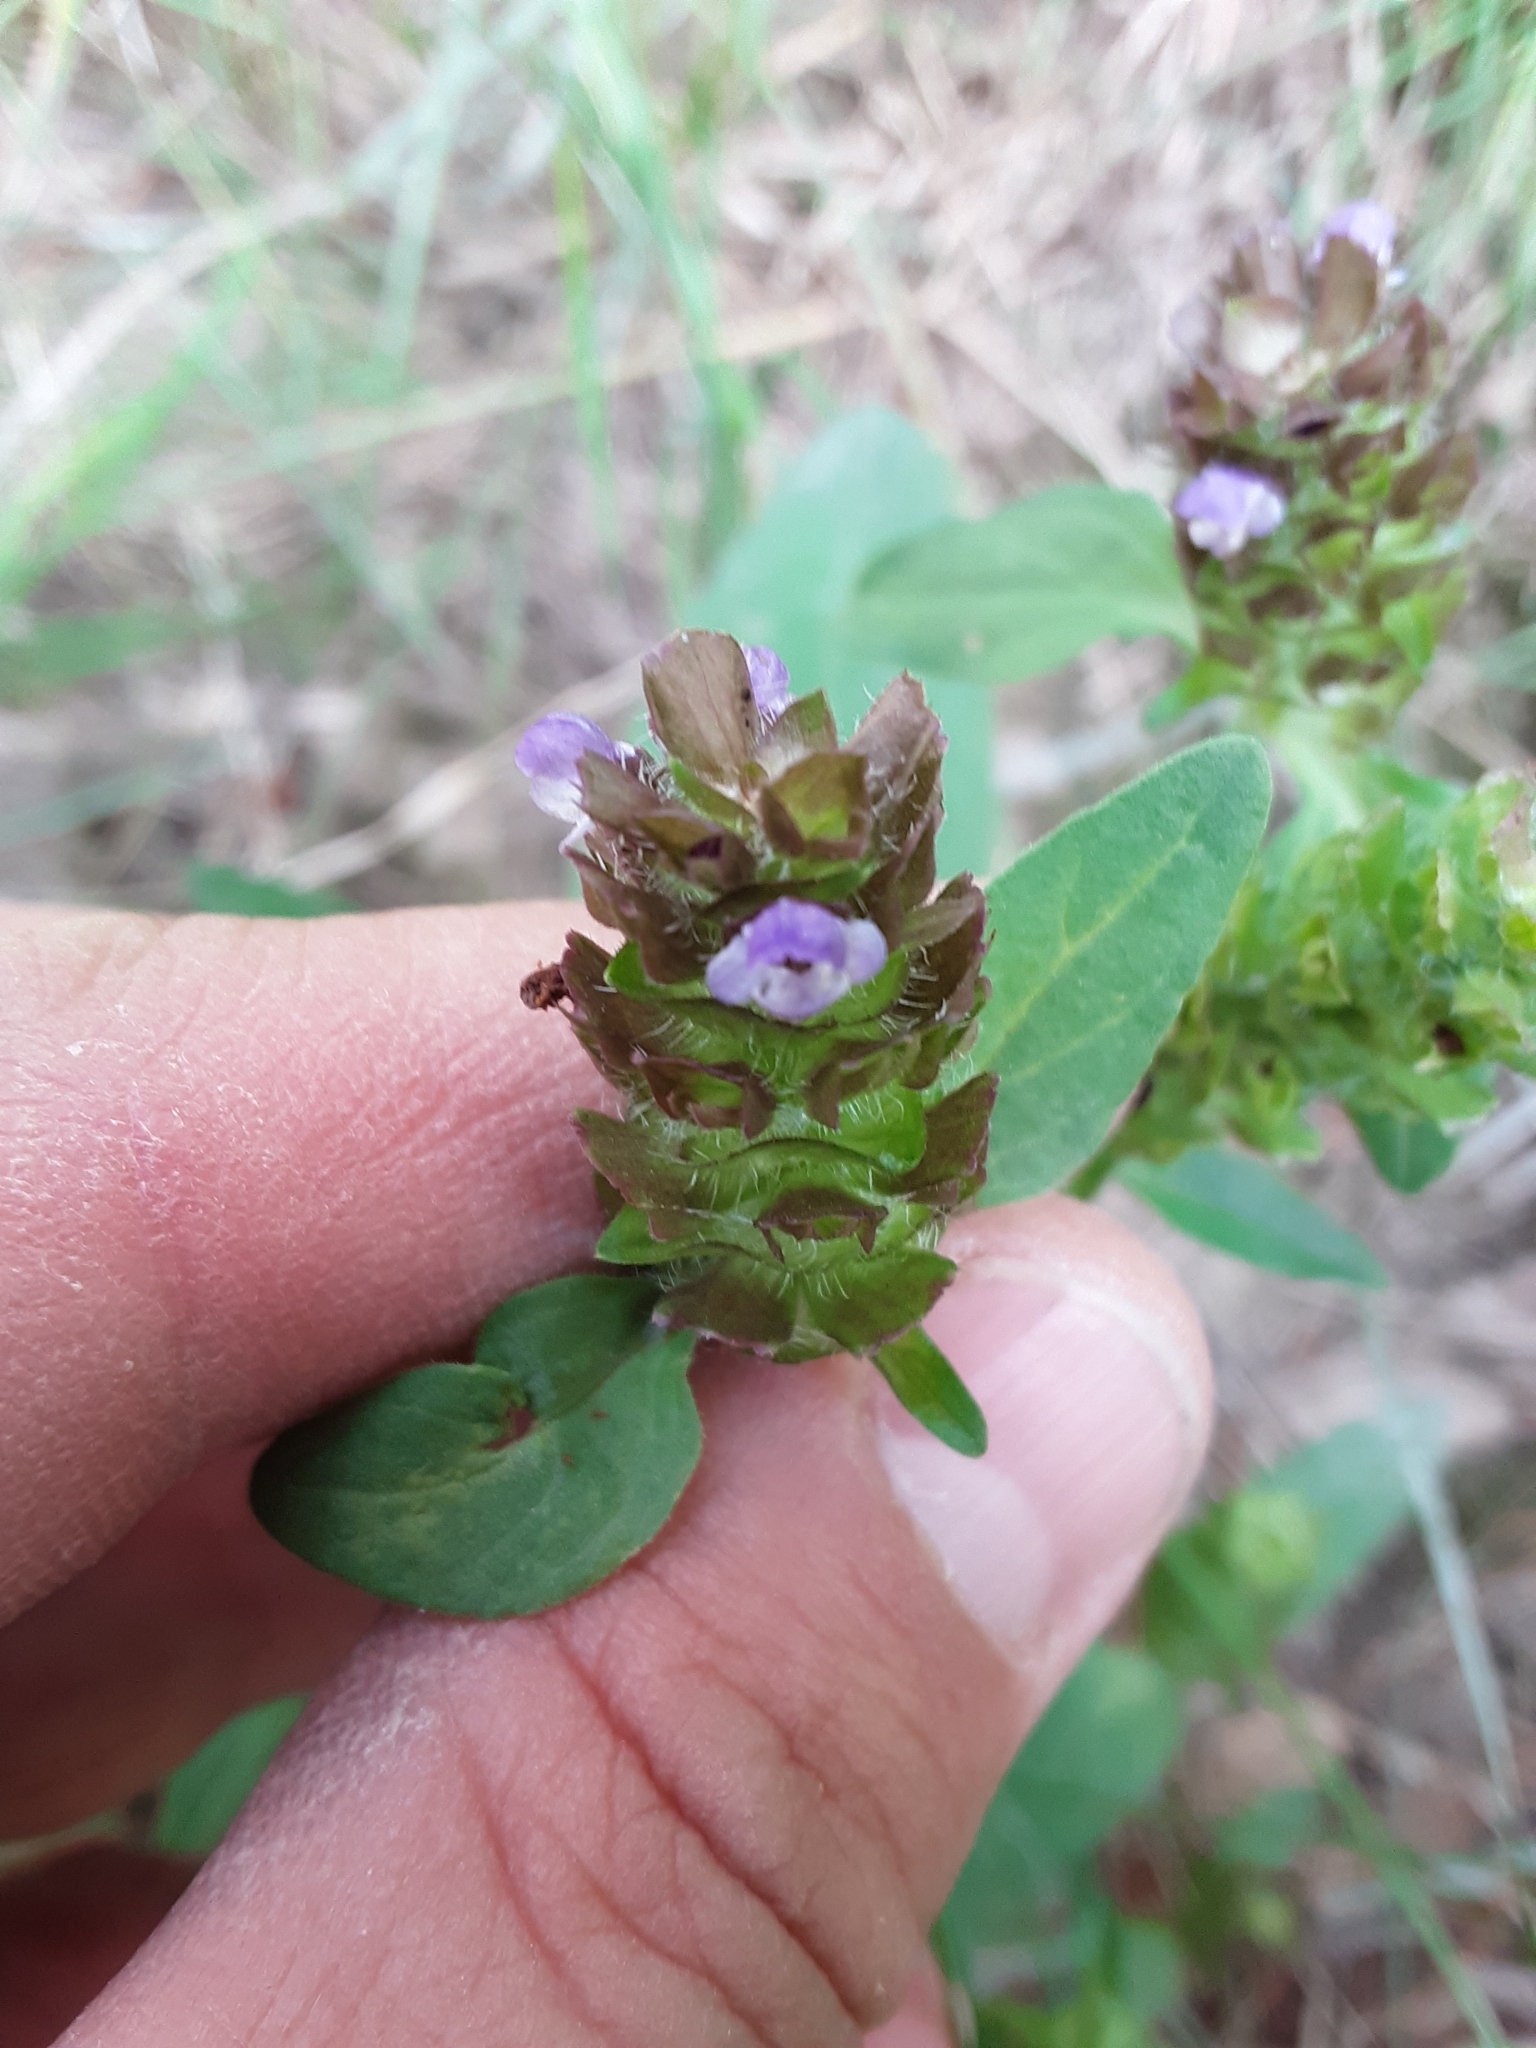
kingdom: Plantae
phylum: Tracheophyta
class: Magnoliopsida
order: Lamiales
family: Lamiaceae
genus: Prunella
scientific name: Prunella vulgaris
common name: Heal-all
